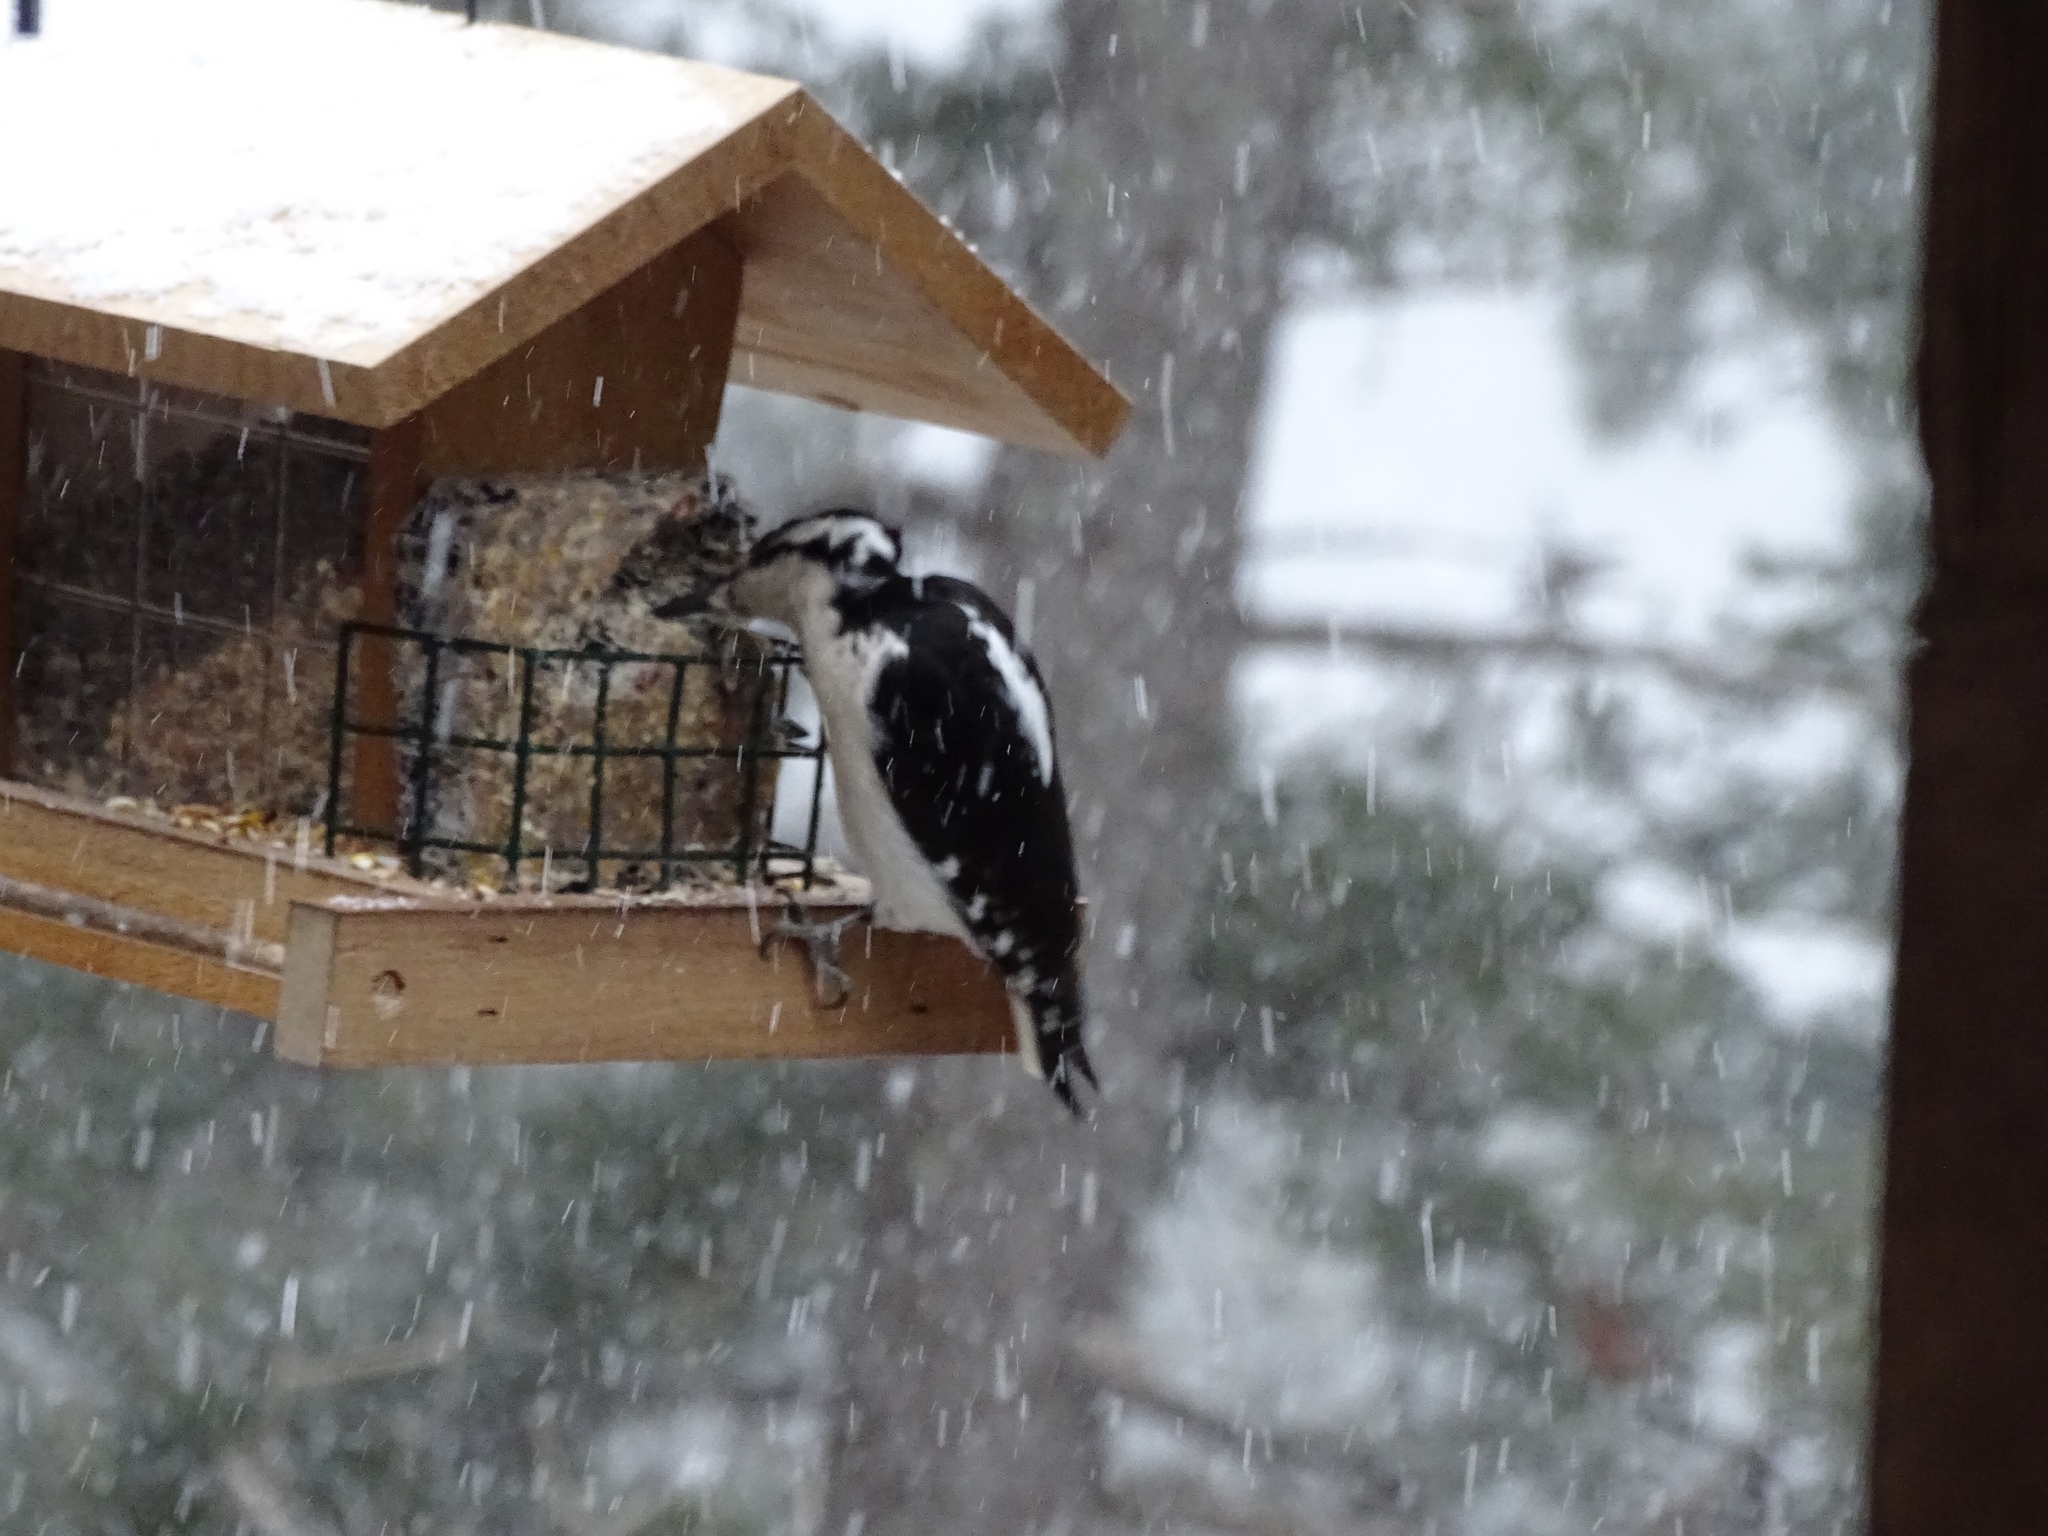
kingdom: Animalia
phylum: Chordata
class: Aves
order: Piciformes
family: Picidae
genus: Leuconotopicus
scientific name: Leuconotopicus villosus
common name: Hairy woodpecker
